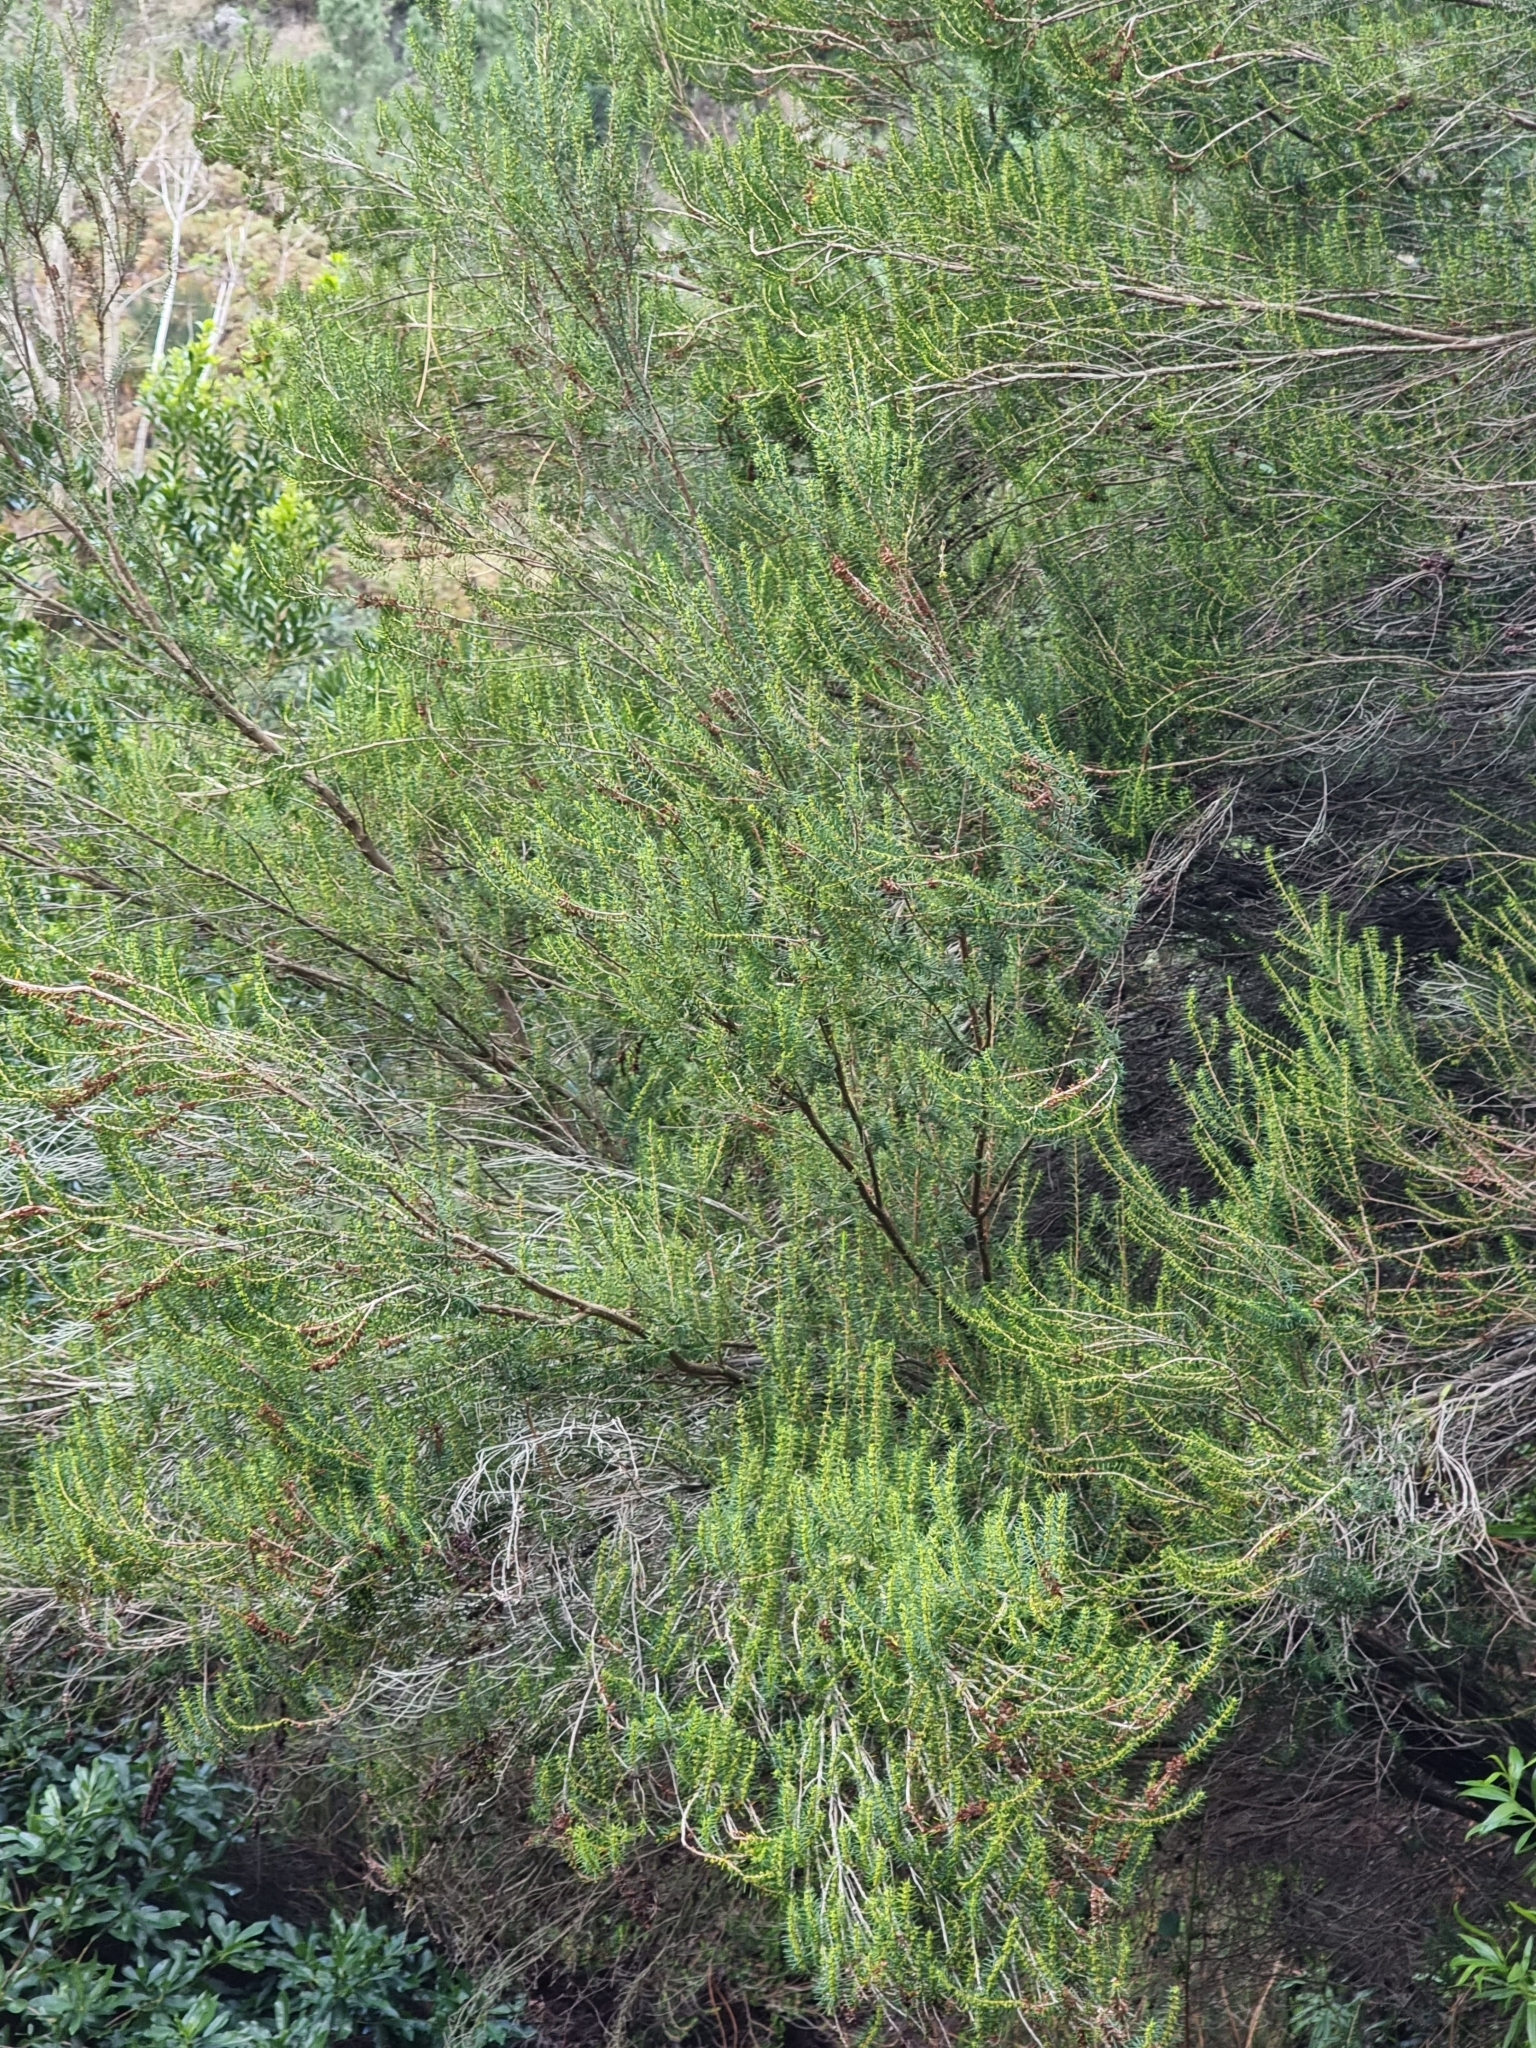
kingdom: Plantae
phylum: Tracheophyta
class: Magnoliopsida
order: Ericales
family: Ericaceae
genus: Erica
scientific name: Erica platycodon
